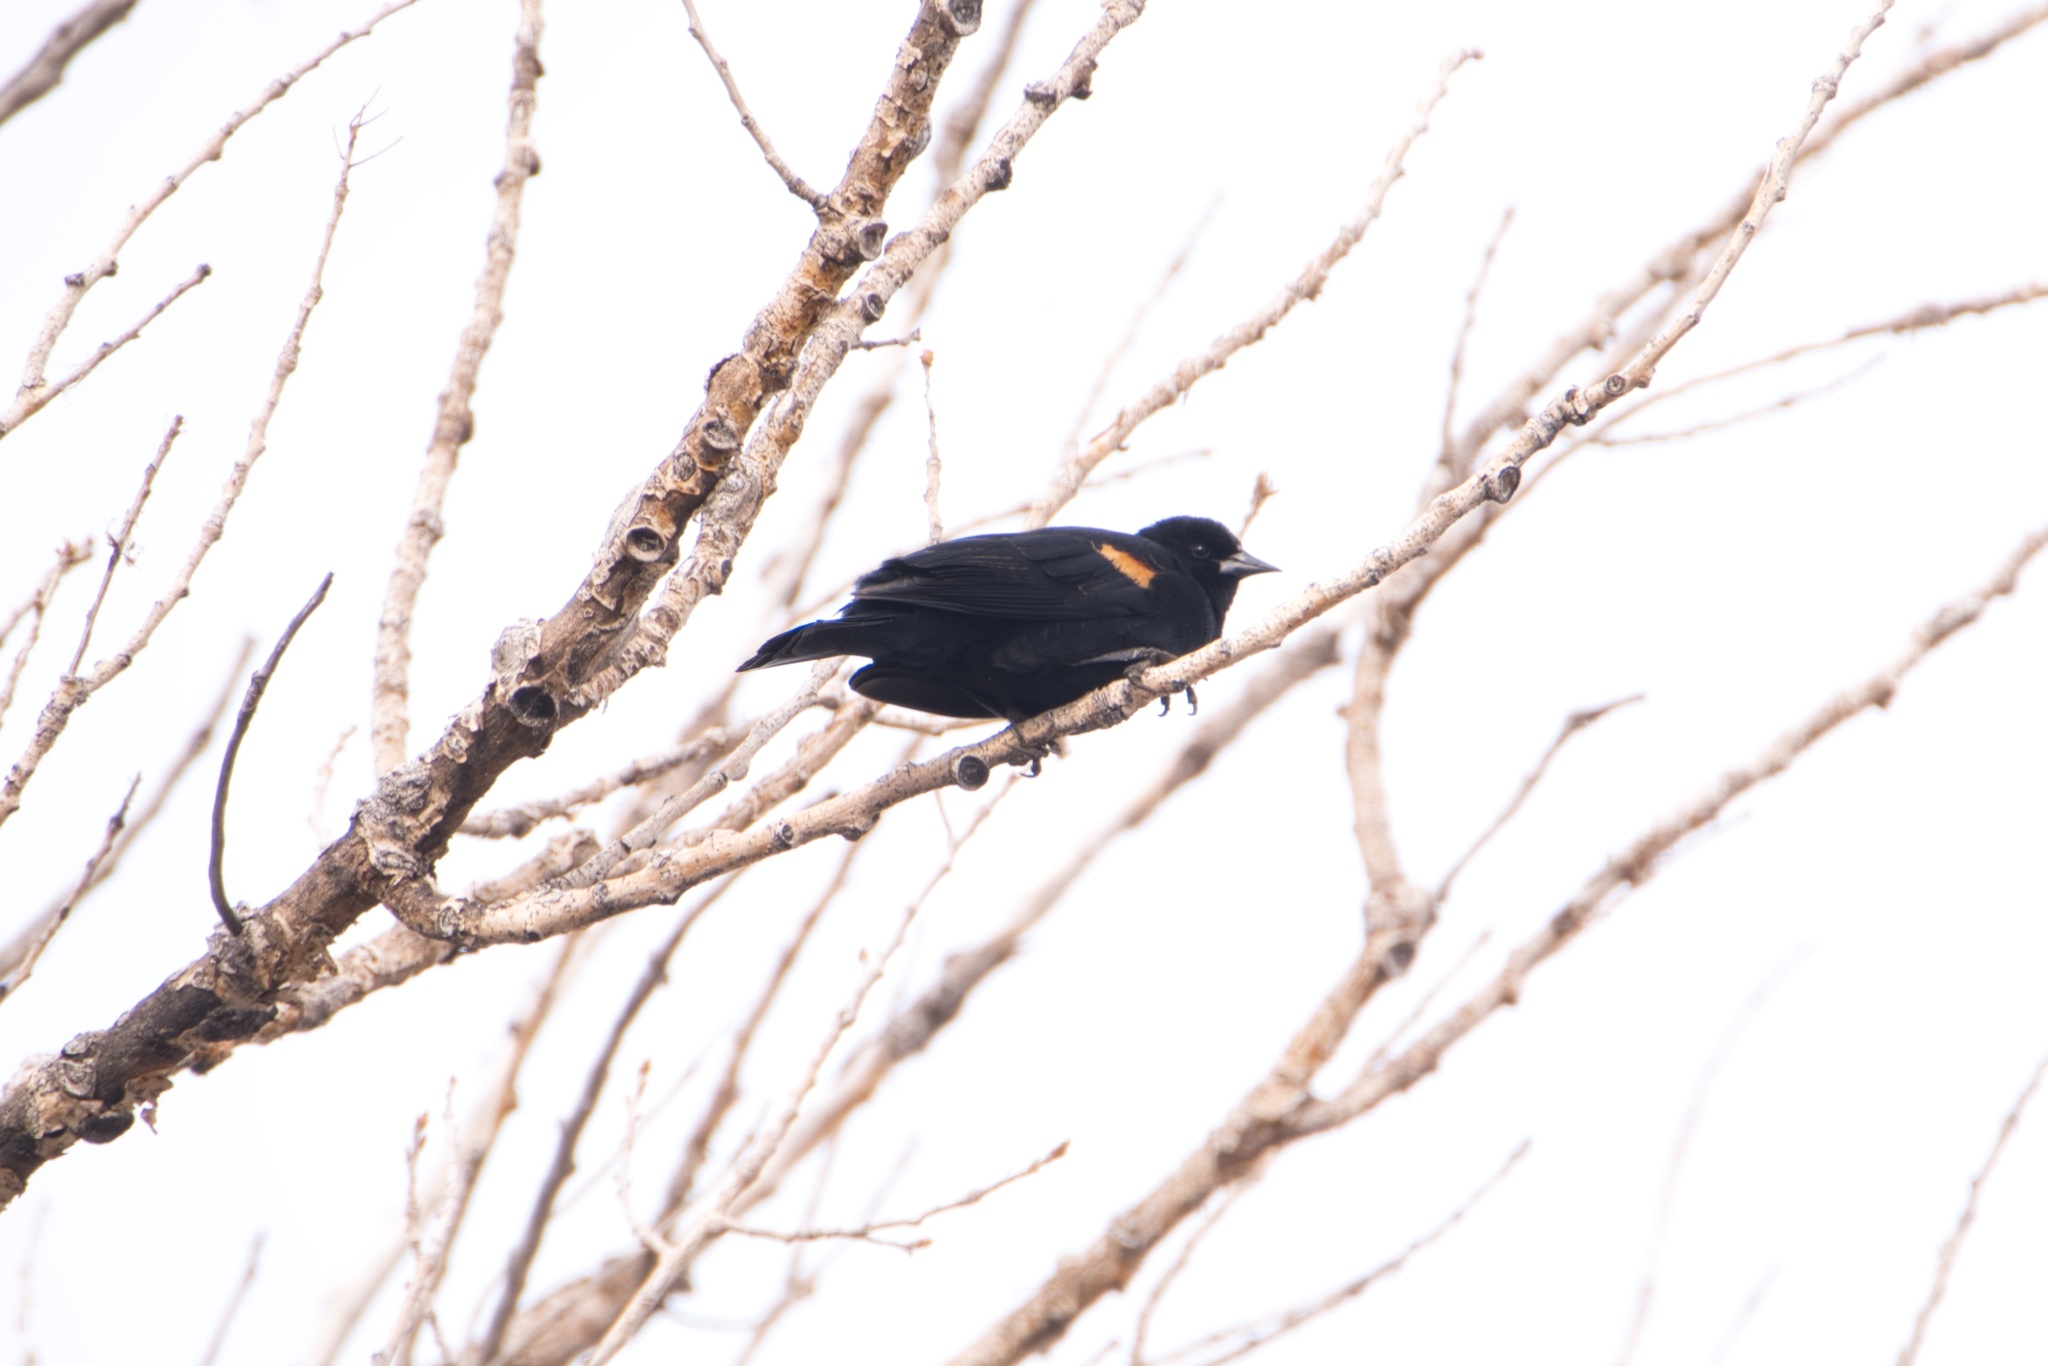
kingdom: Animalia
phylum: Chordata
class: Aves
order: Passeriformes
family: Icteridae
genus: Agelaius
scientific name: Agelaius phoeniceus
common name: Red-winged blackbird
